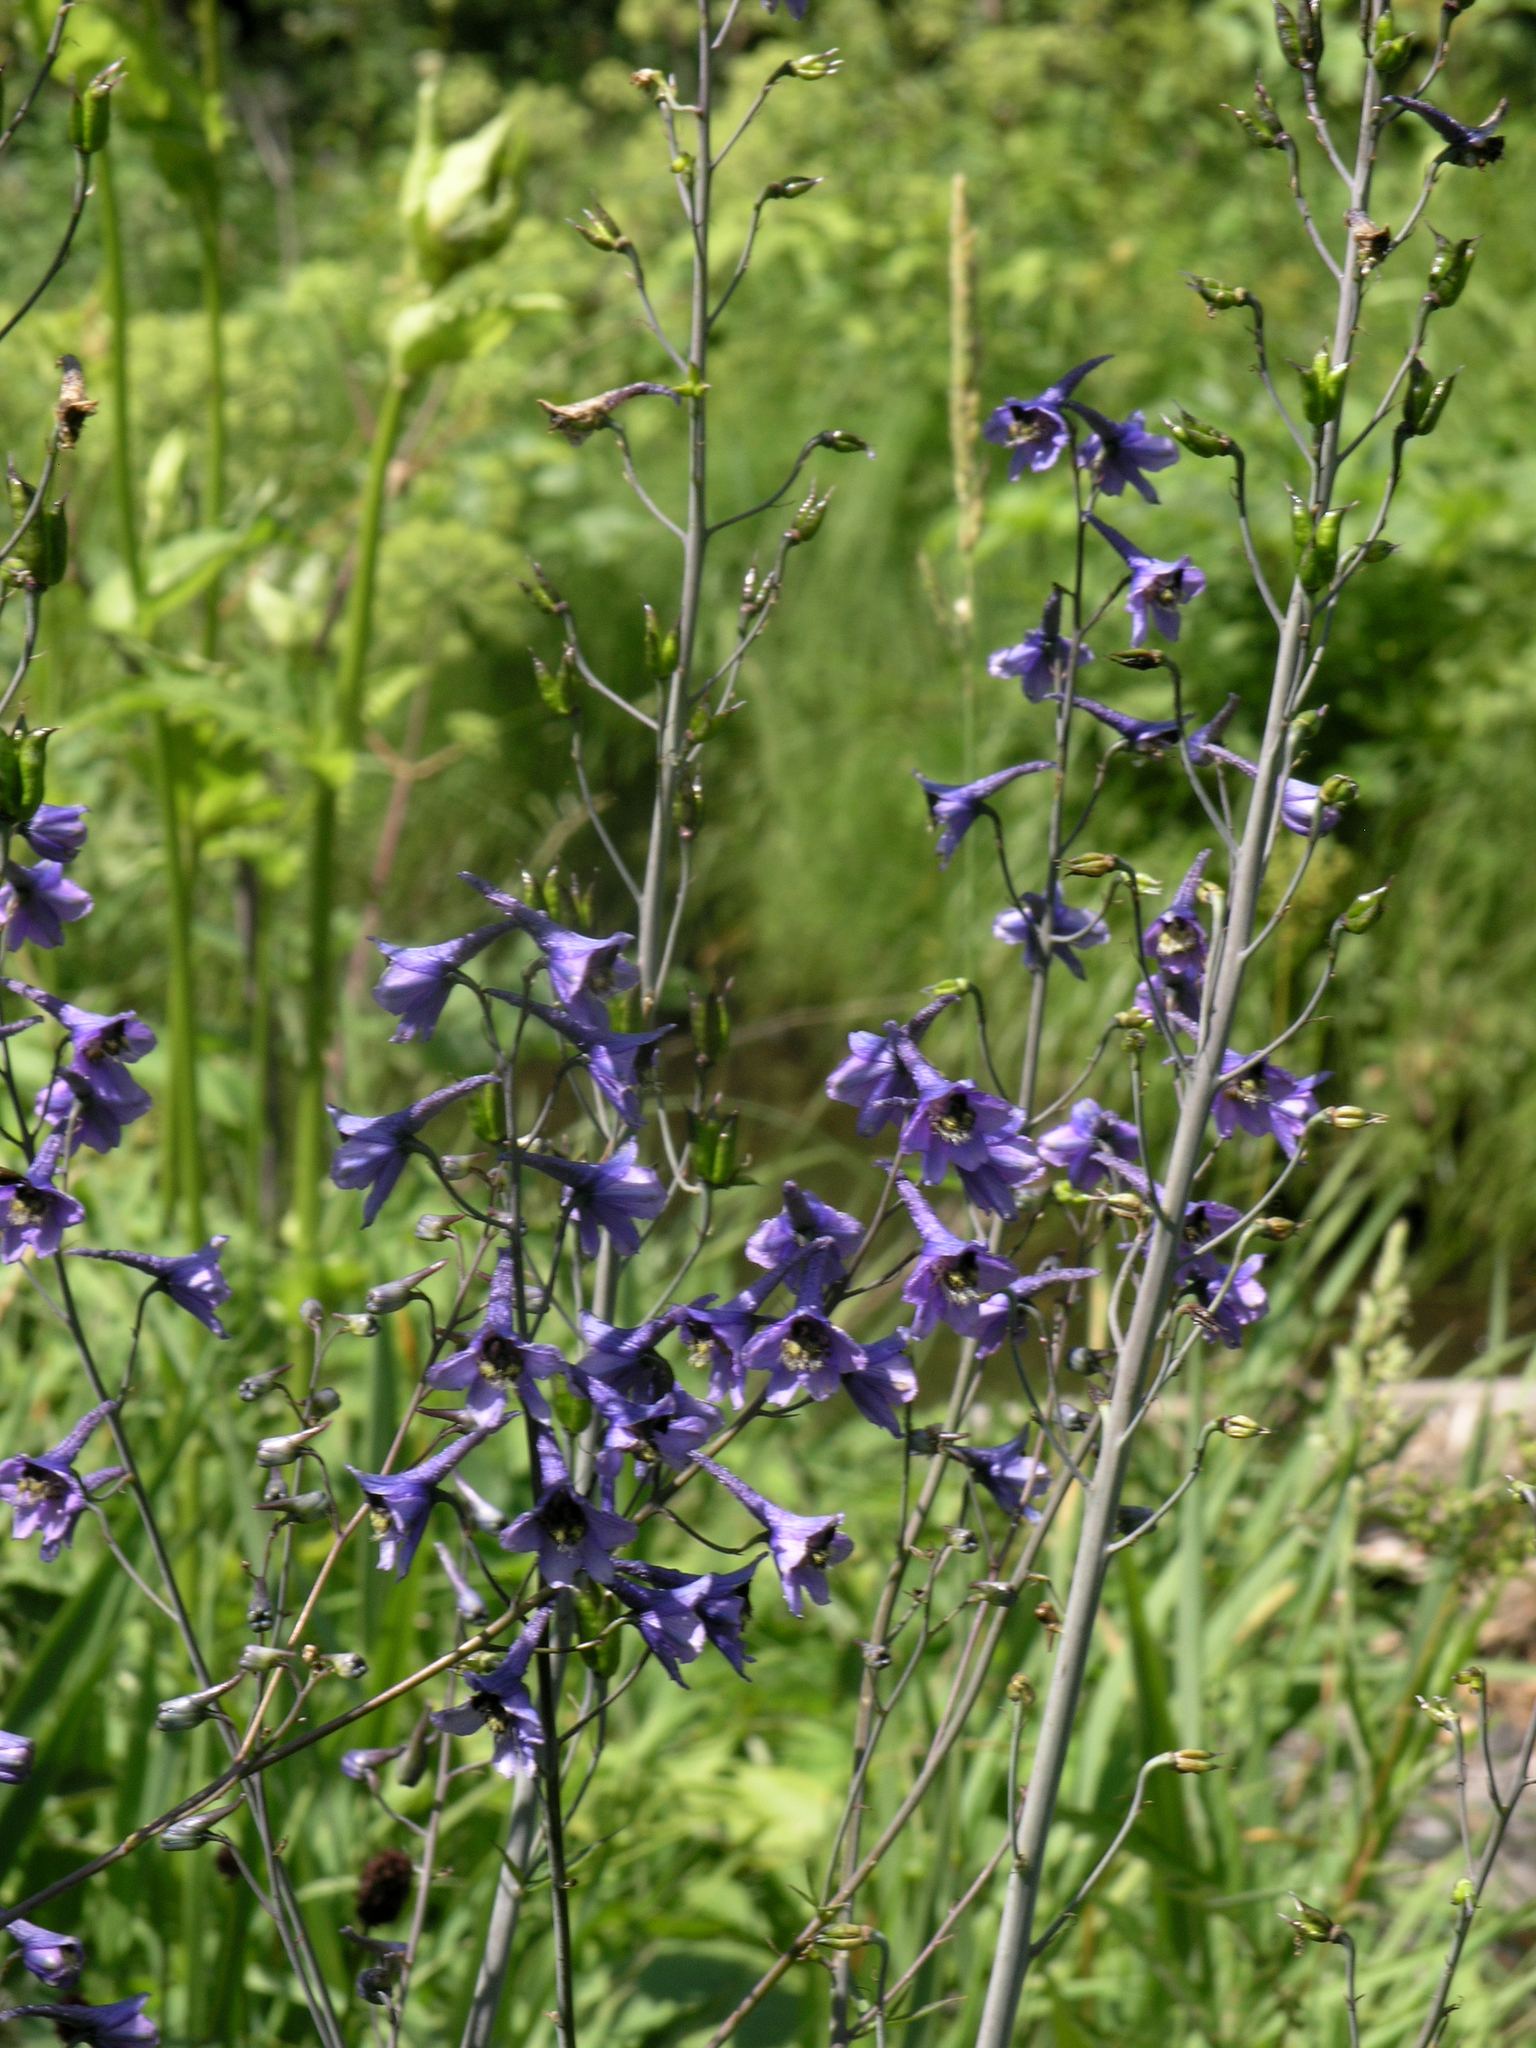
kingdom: Plantae
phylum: Tracheophyta
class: Magnoliopsida
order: Ranunculales
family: Ranunculaceae
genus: Delphinium
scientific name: Delphinium elatum
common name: Candle larkspur
